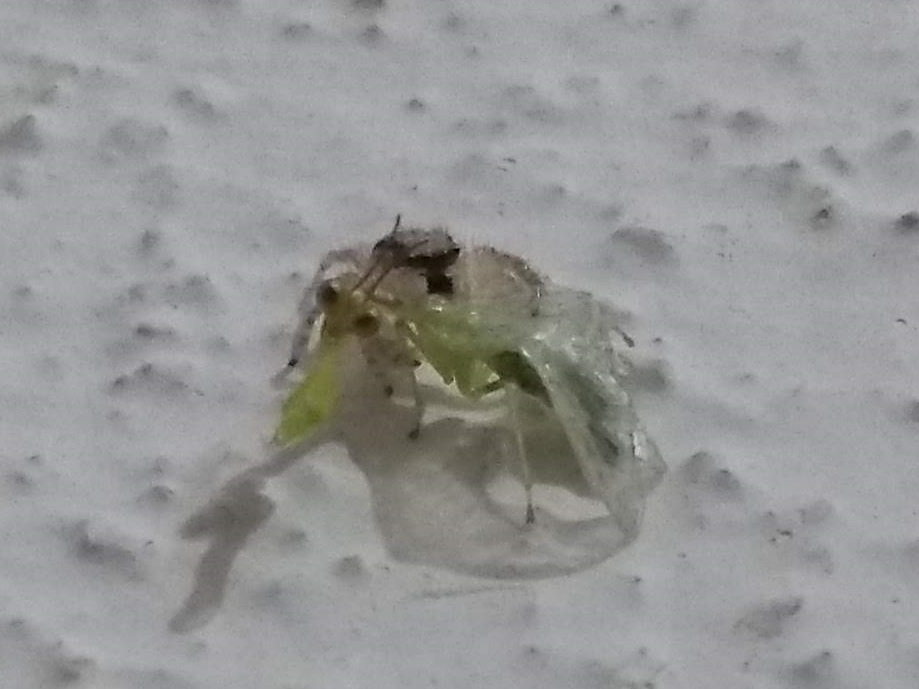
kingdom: Animalia
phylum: Arthropoda
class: Arachnida
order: Araneae
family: Salticidae
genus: Menemerus
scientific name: Menemerus bivittatus
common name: Gray wall jumper
